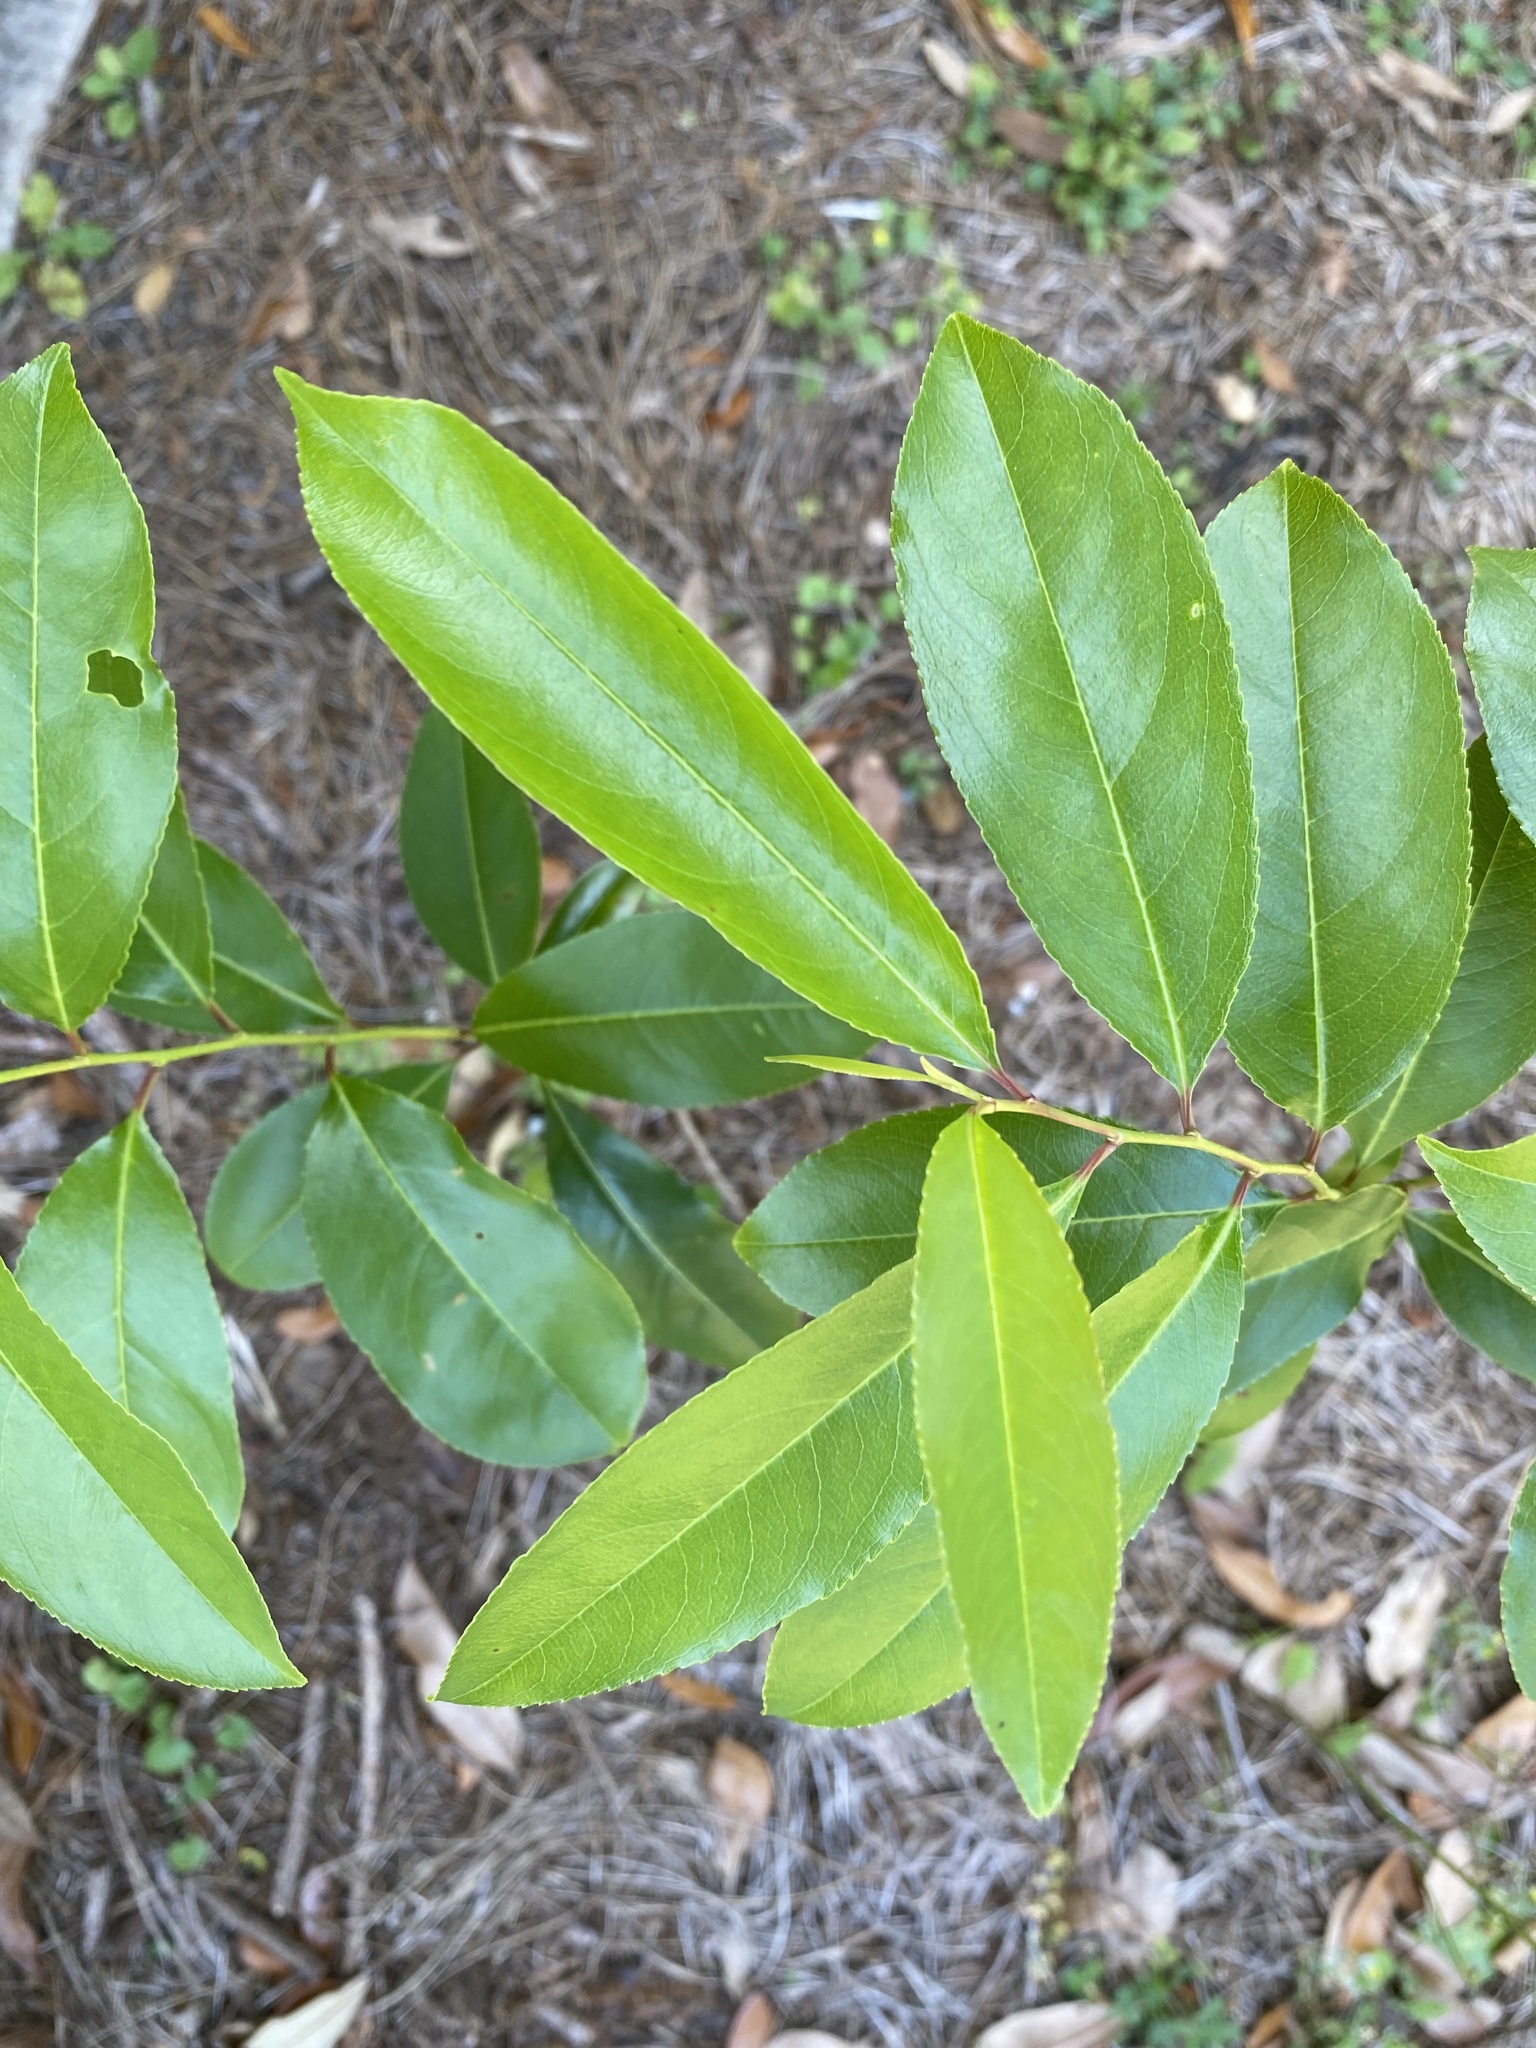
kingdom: Plantae
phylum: Tracheophyta
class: Magnoliopsida
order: Rosales
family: Rosaceae
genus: Prunus
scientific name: Prunus caroliniana
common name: Carolina laurel cherry
